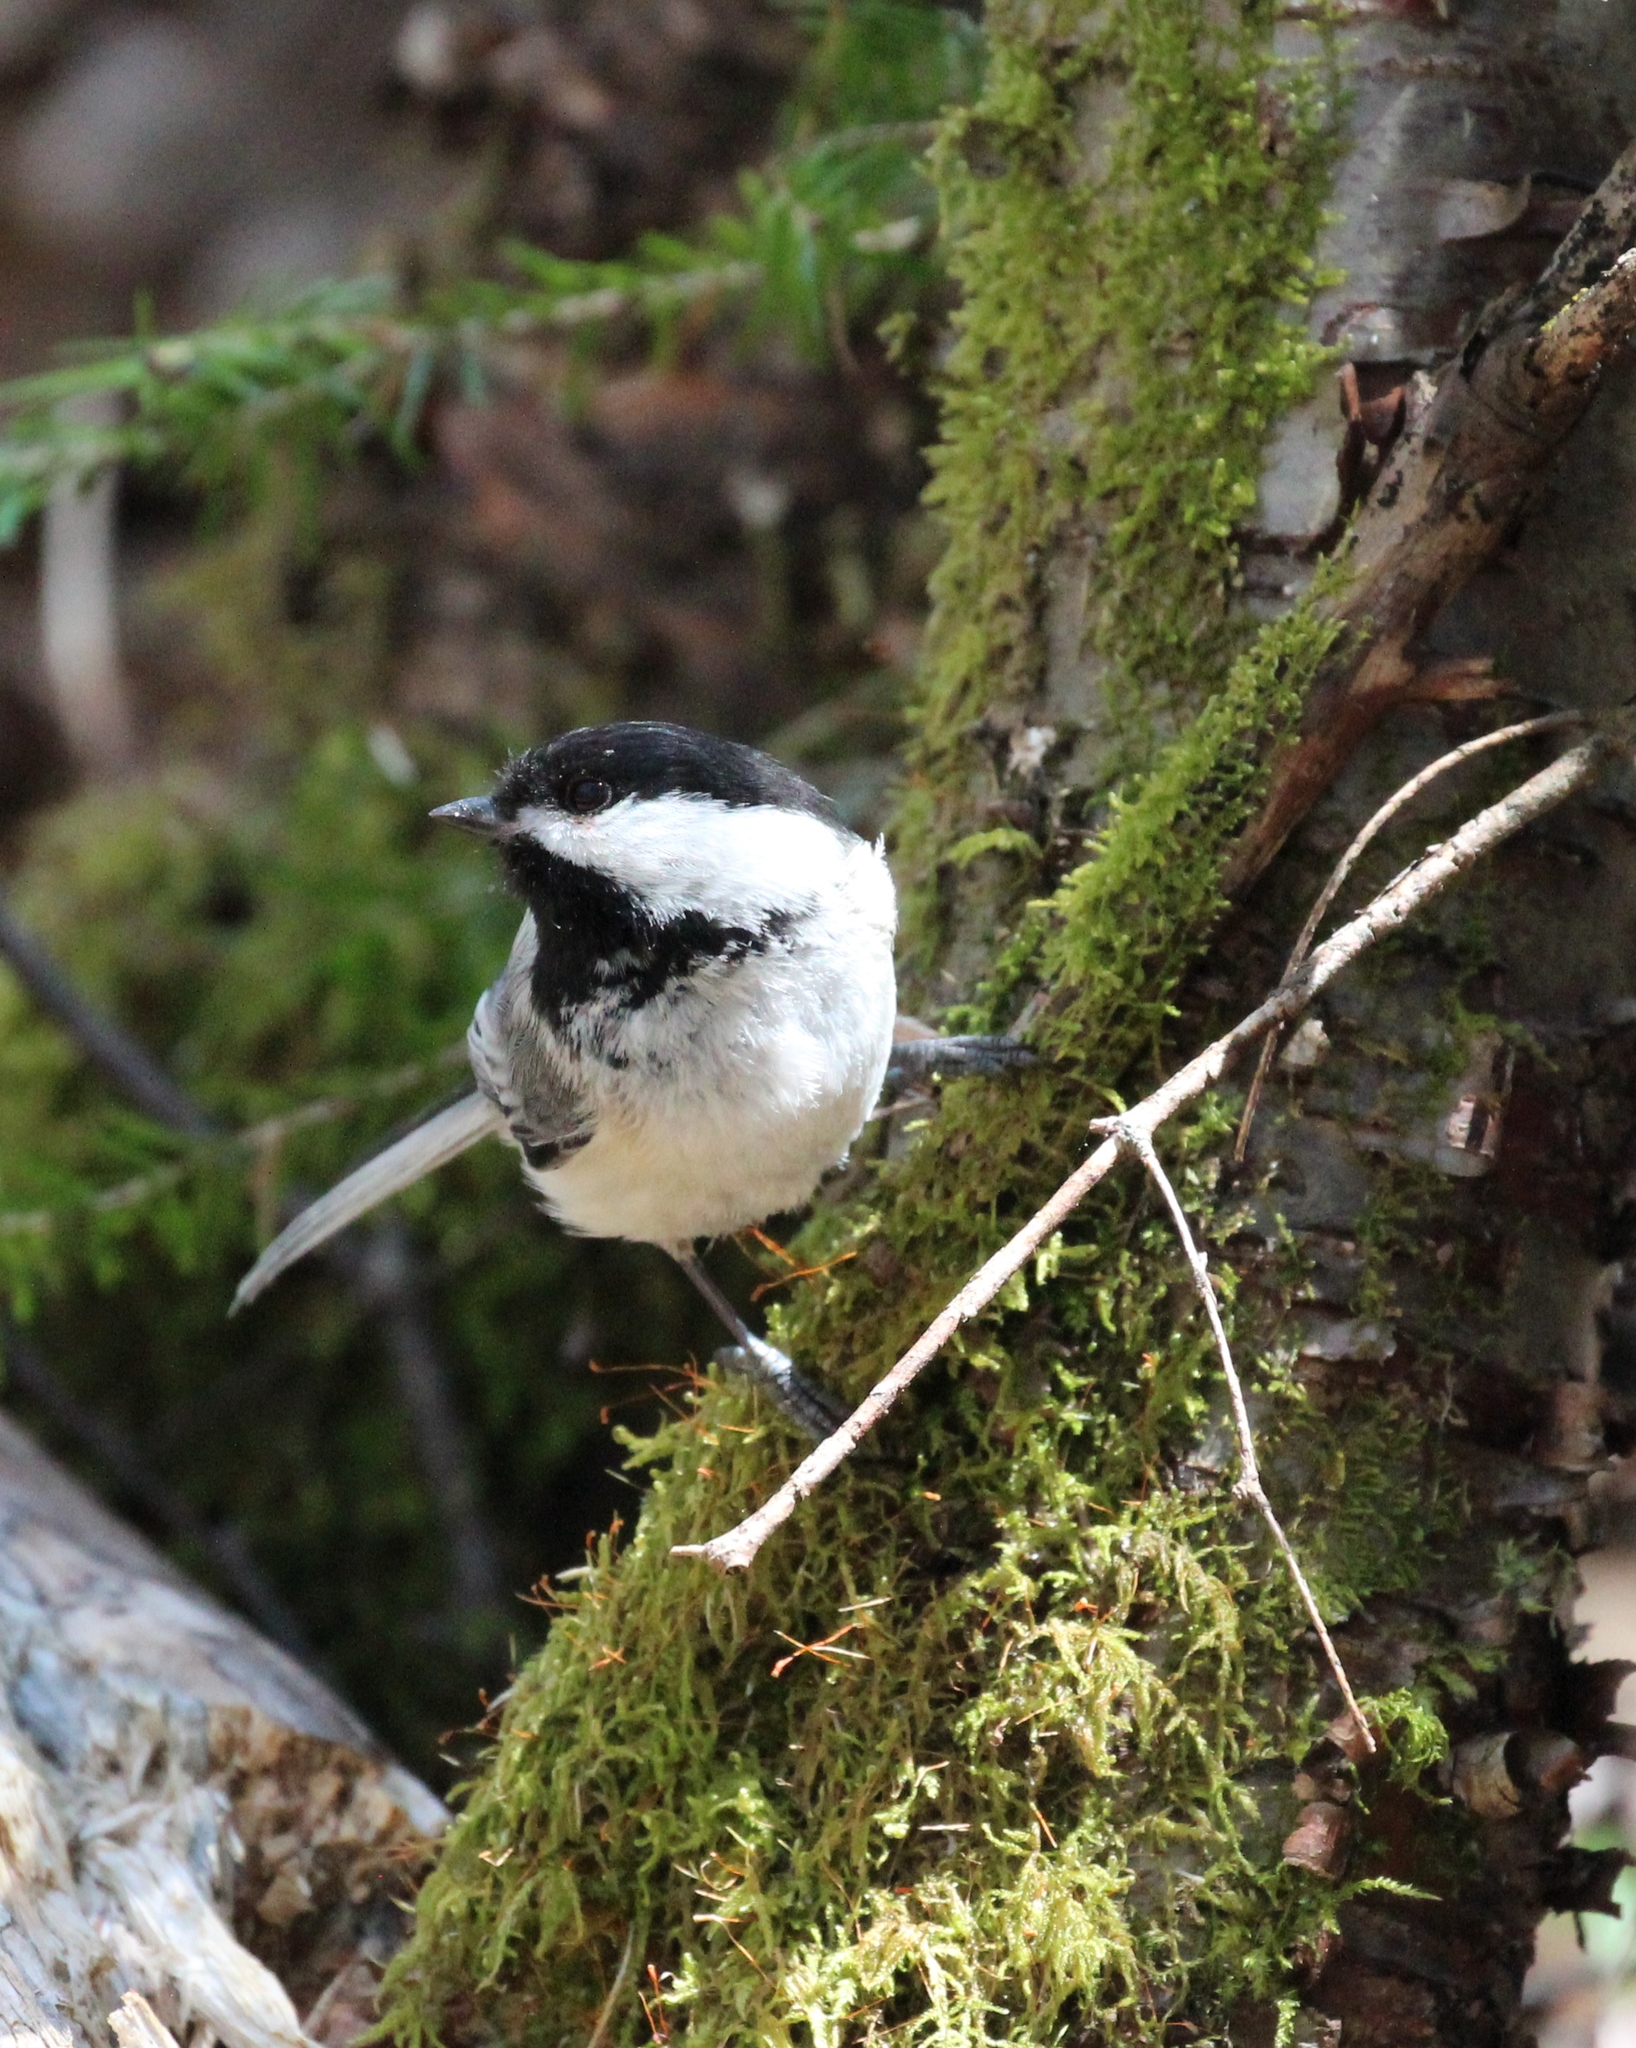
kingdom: Animalia
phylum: Chordata
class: Aves
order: Passeriformes
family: Paridae
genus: Poecile
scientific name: Poecile atricapillus
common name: Black-capped chickadee
